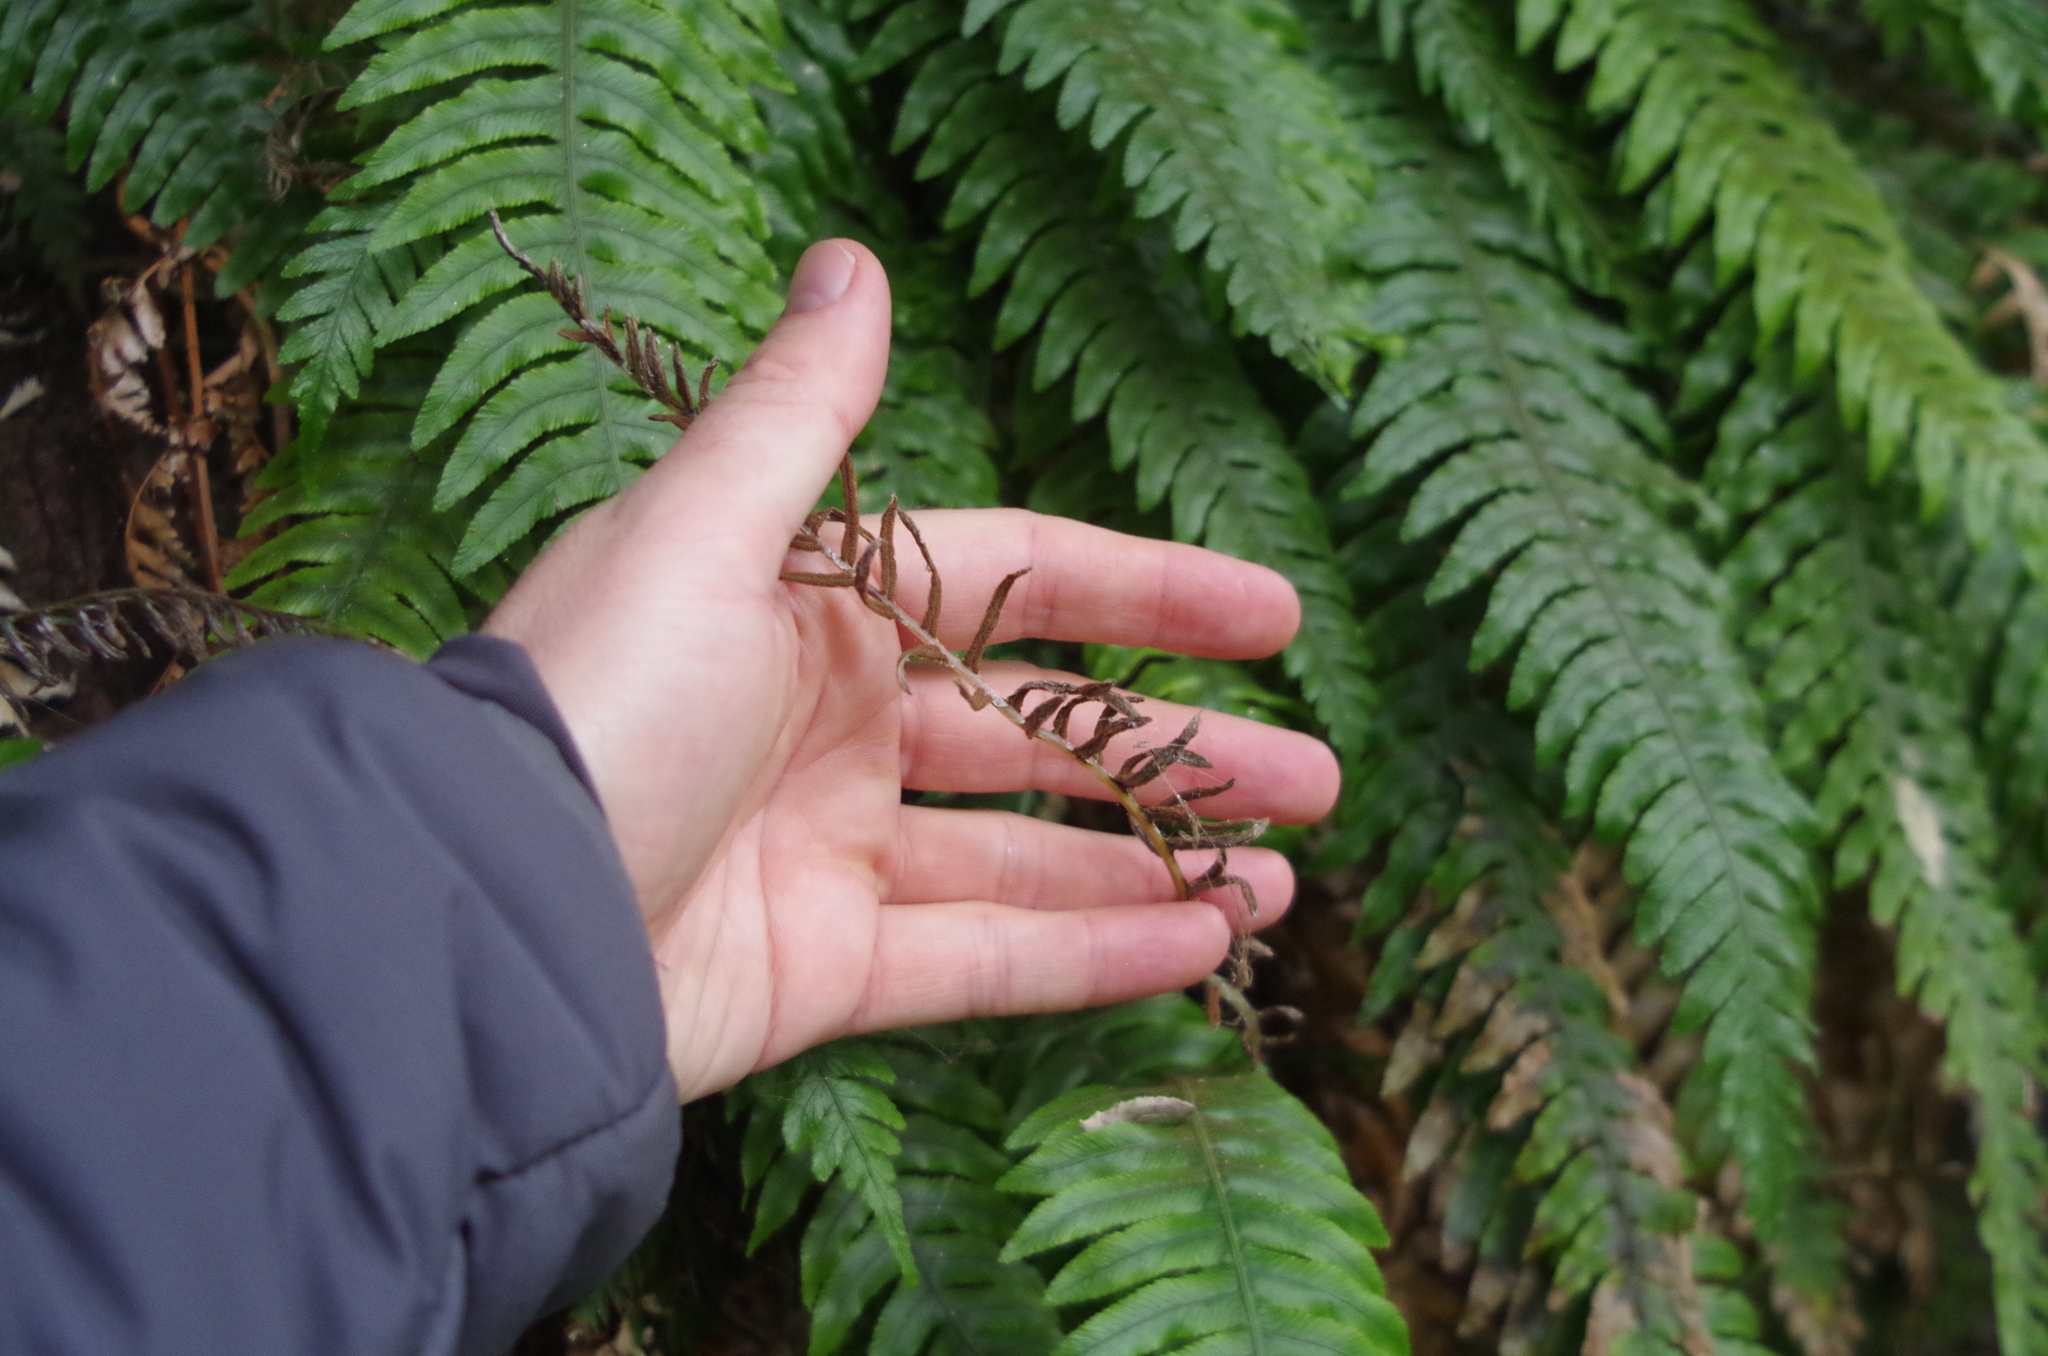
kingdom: Plantae
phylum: Tracheophyta
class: Polypodiopsida
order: Polypodiales
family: Blechnaceae
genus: Austroblechnum
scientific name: Austroblechnum lanceolatum
